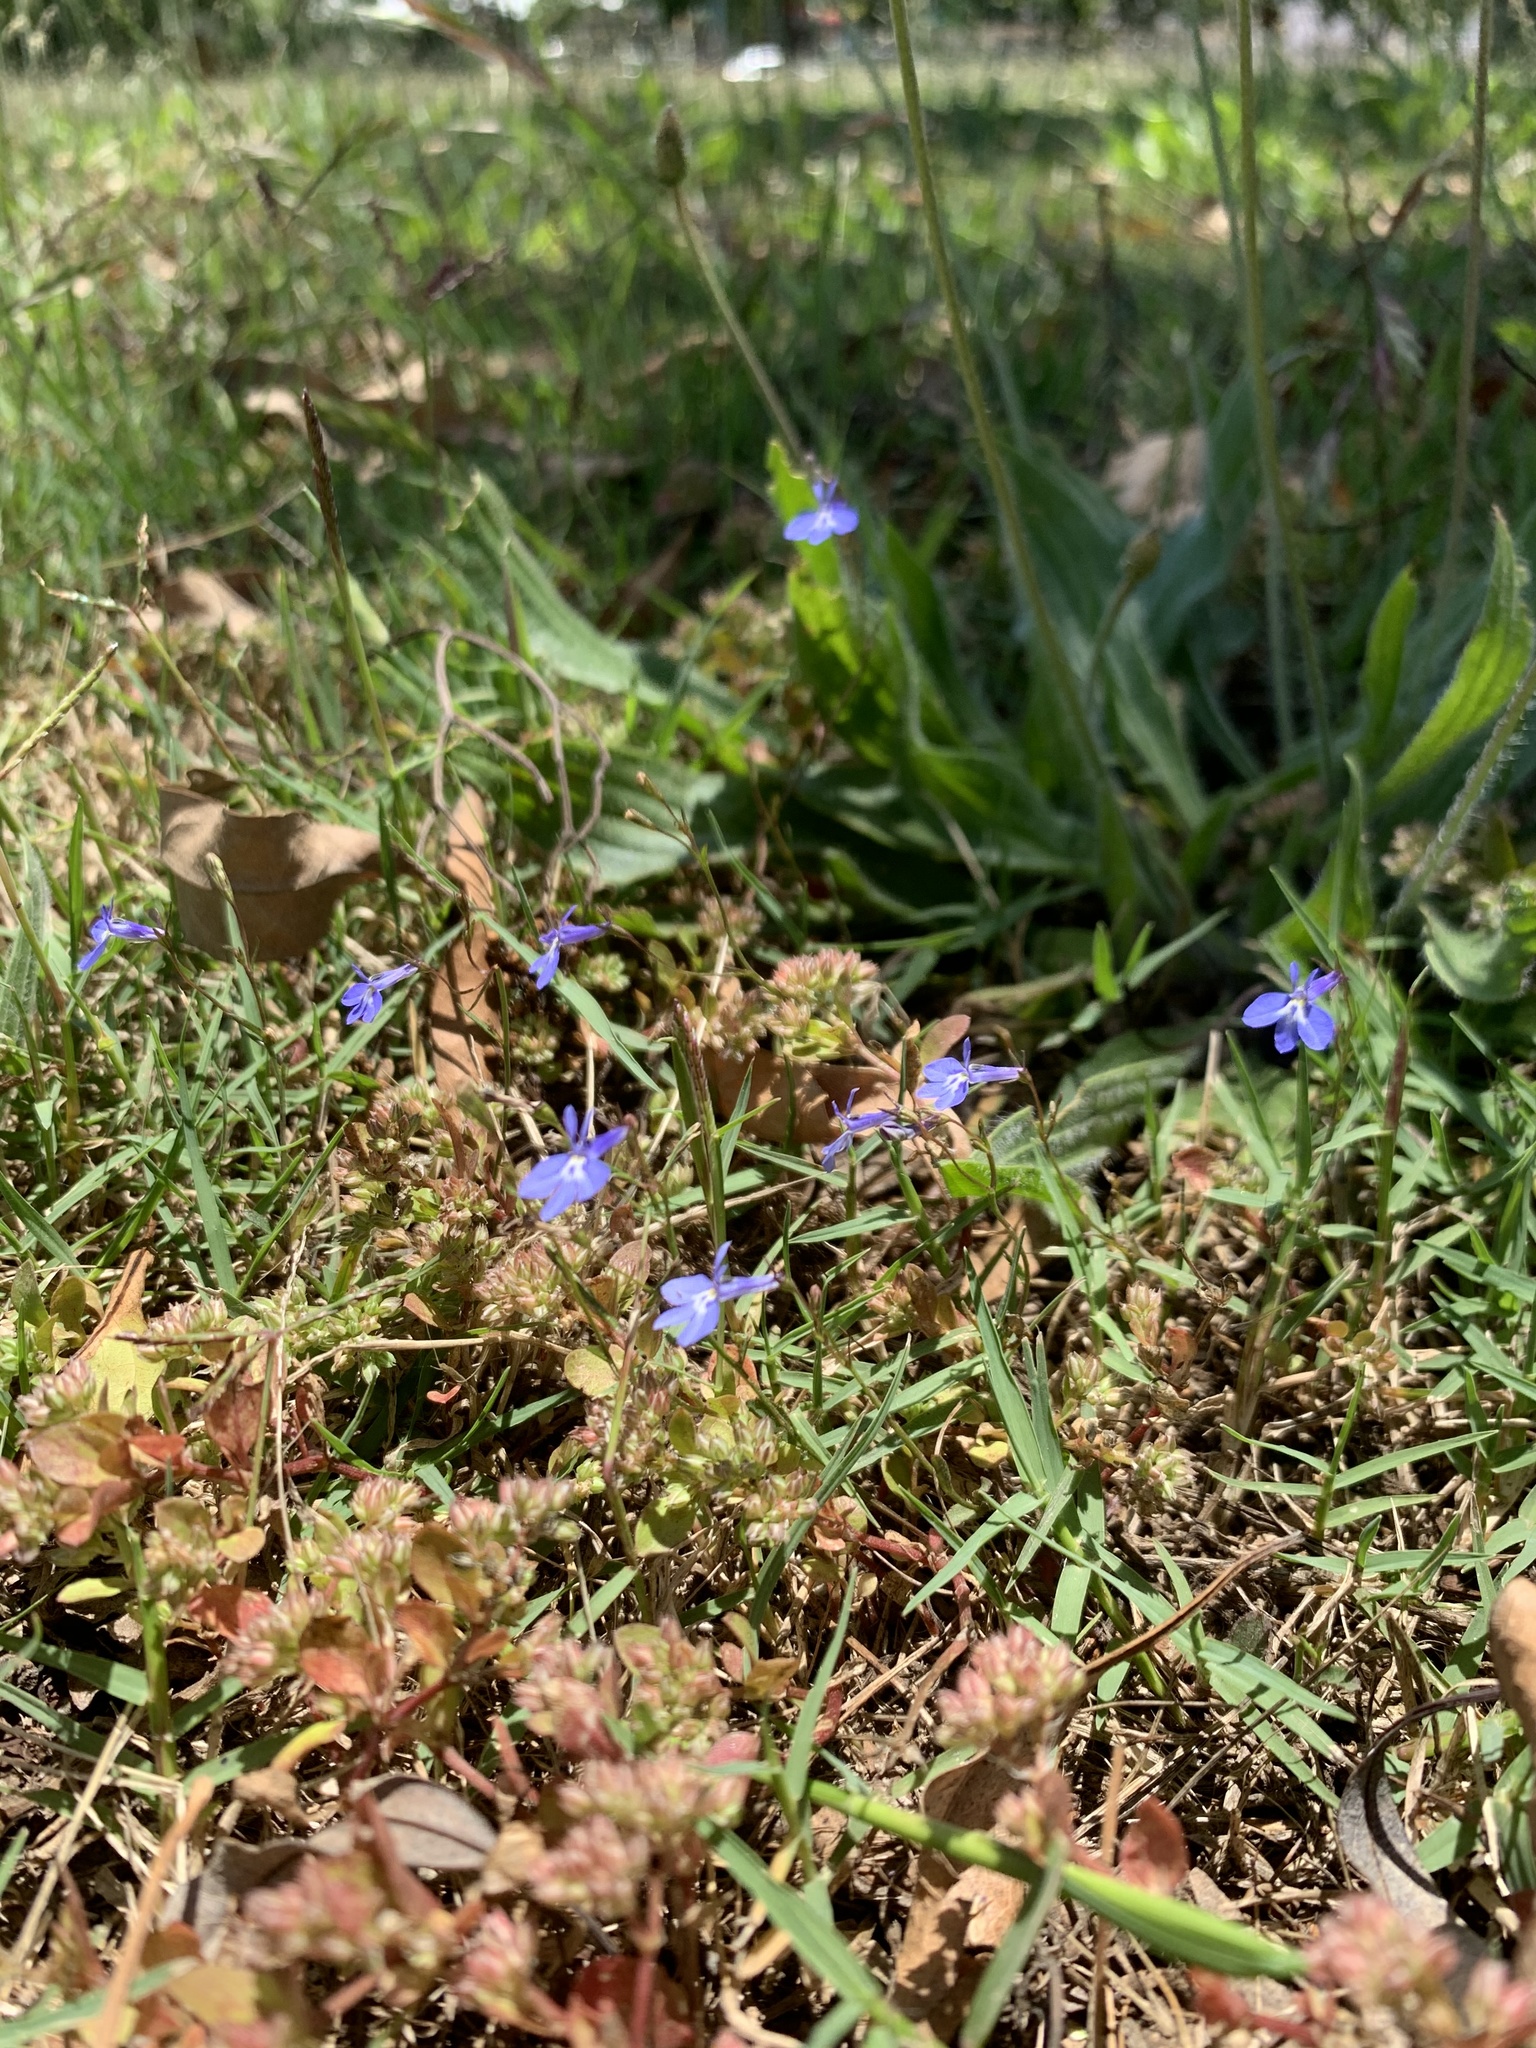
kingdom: Plantae
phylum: Tracheophyta
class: Magnoliopsida
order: Asterales
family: Campanulaceae
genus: Lobelia
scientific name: Lobelia erinus
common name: Edging lobelia
